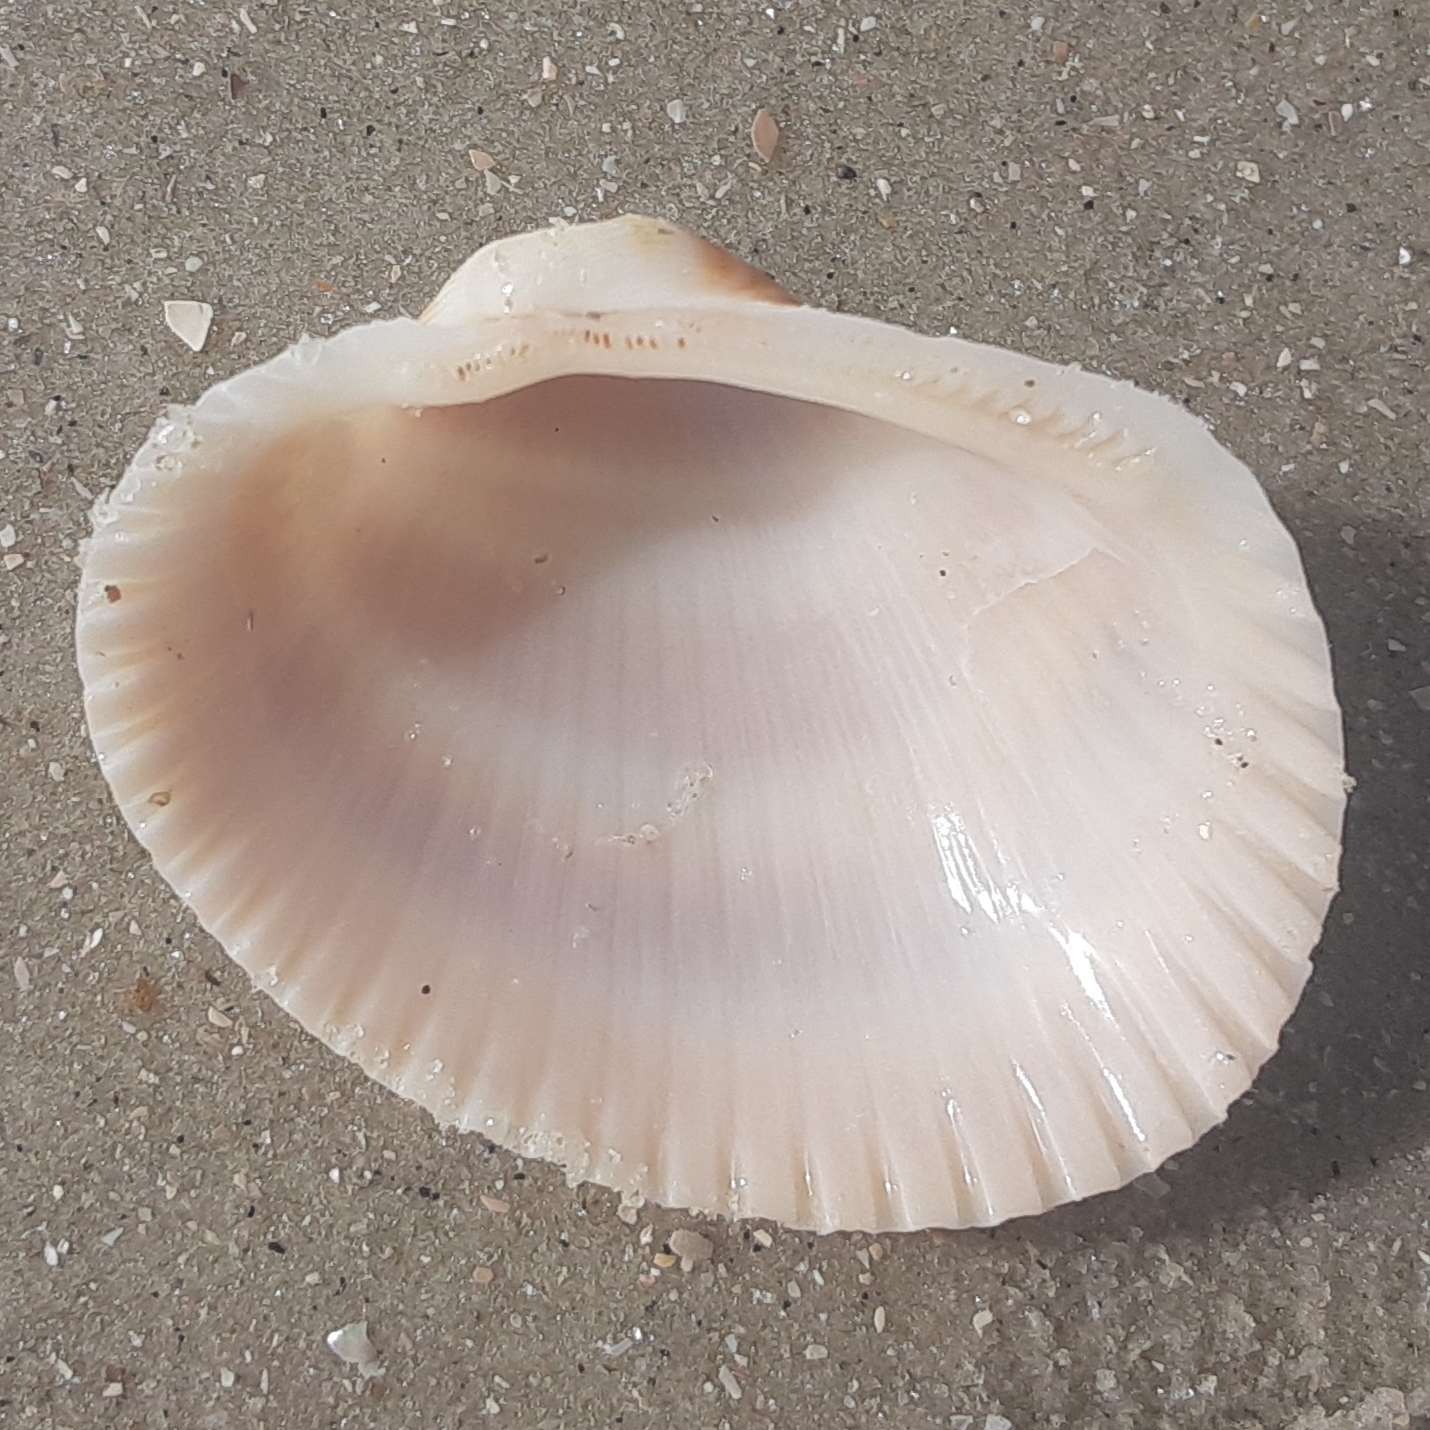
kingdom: Animalia
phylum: Mollusca
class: Bivalvia
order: Arcida
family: Arcidae
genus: Lunarca
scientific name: Lunarca ovalis
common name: Blood ark
